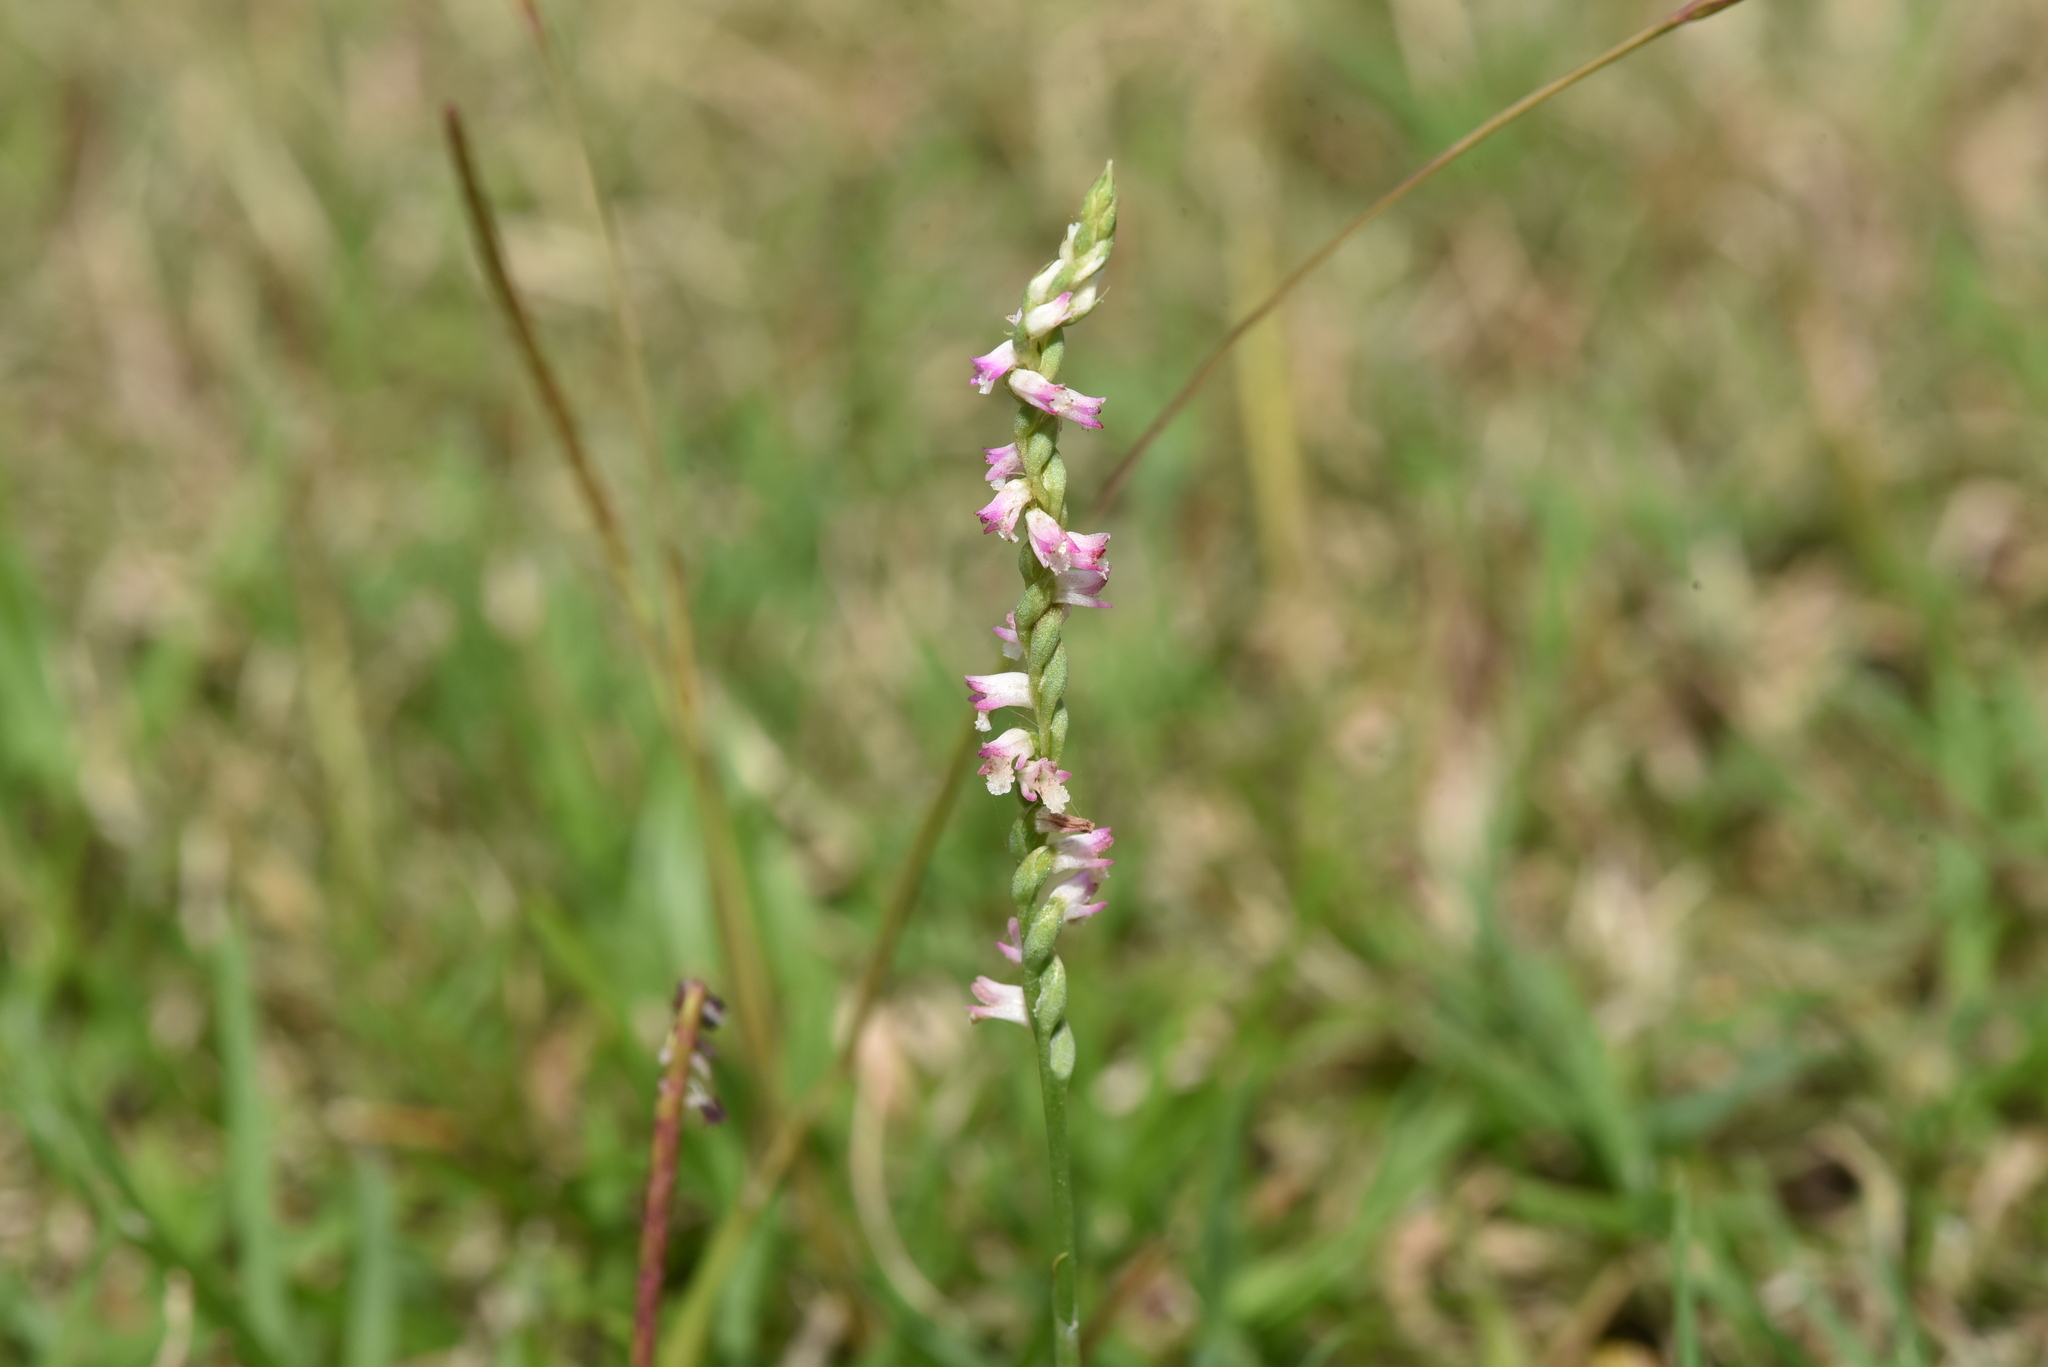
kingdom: Plantae
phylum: Tracheophyta
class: Liliopsida
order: Asparagales
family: Orchidaceae
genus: Spiranthes
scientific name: Spiranthes sinensis
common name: Chinese spiranthes
